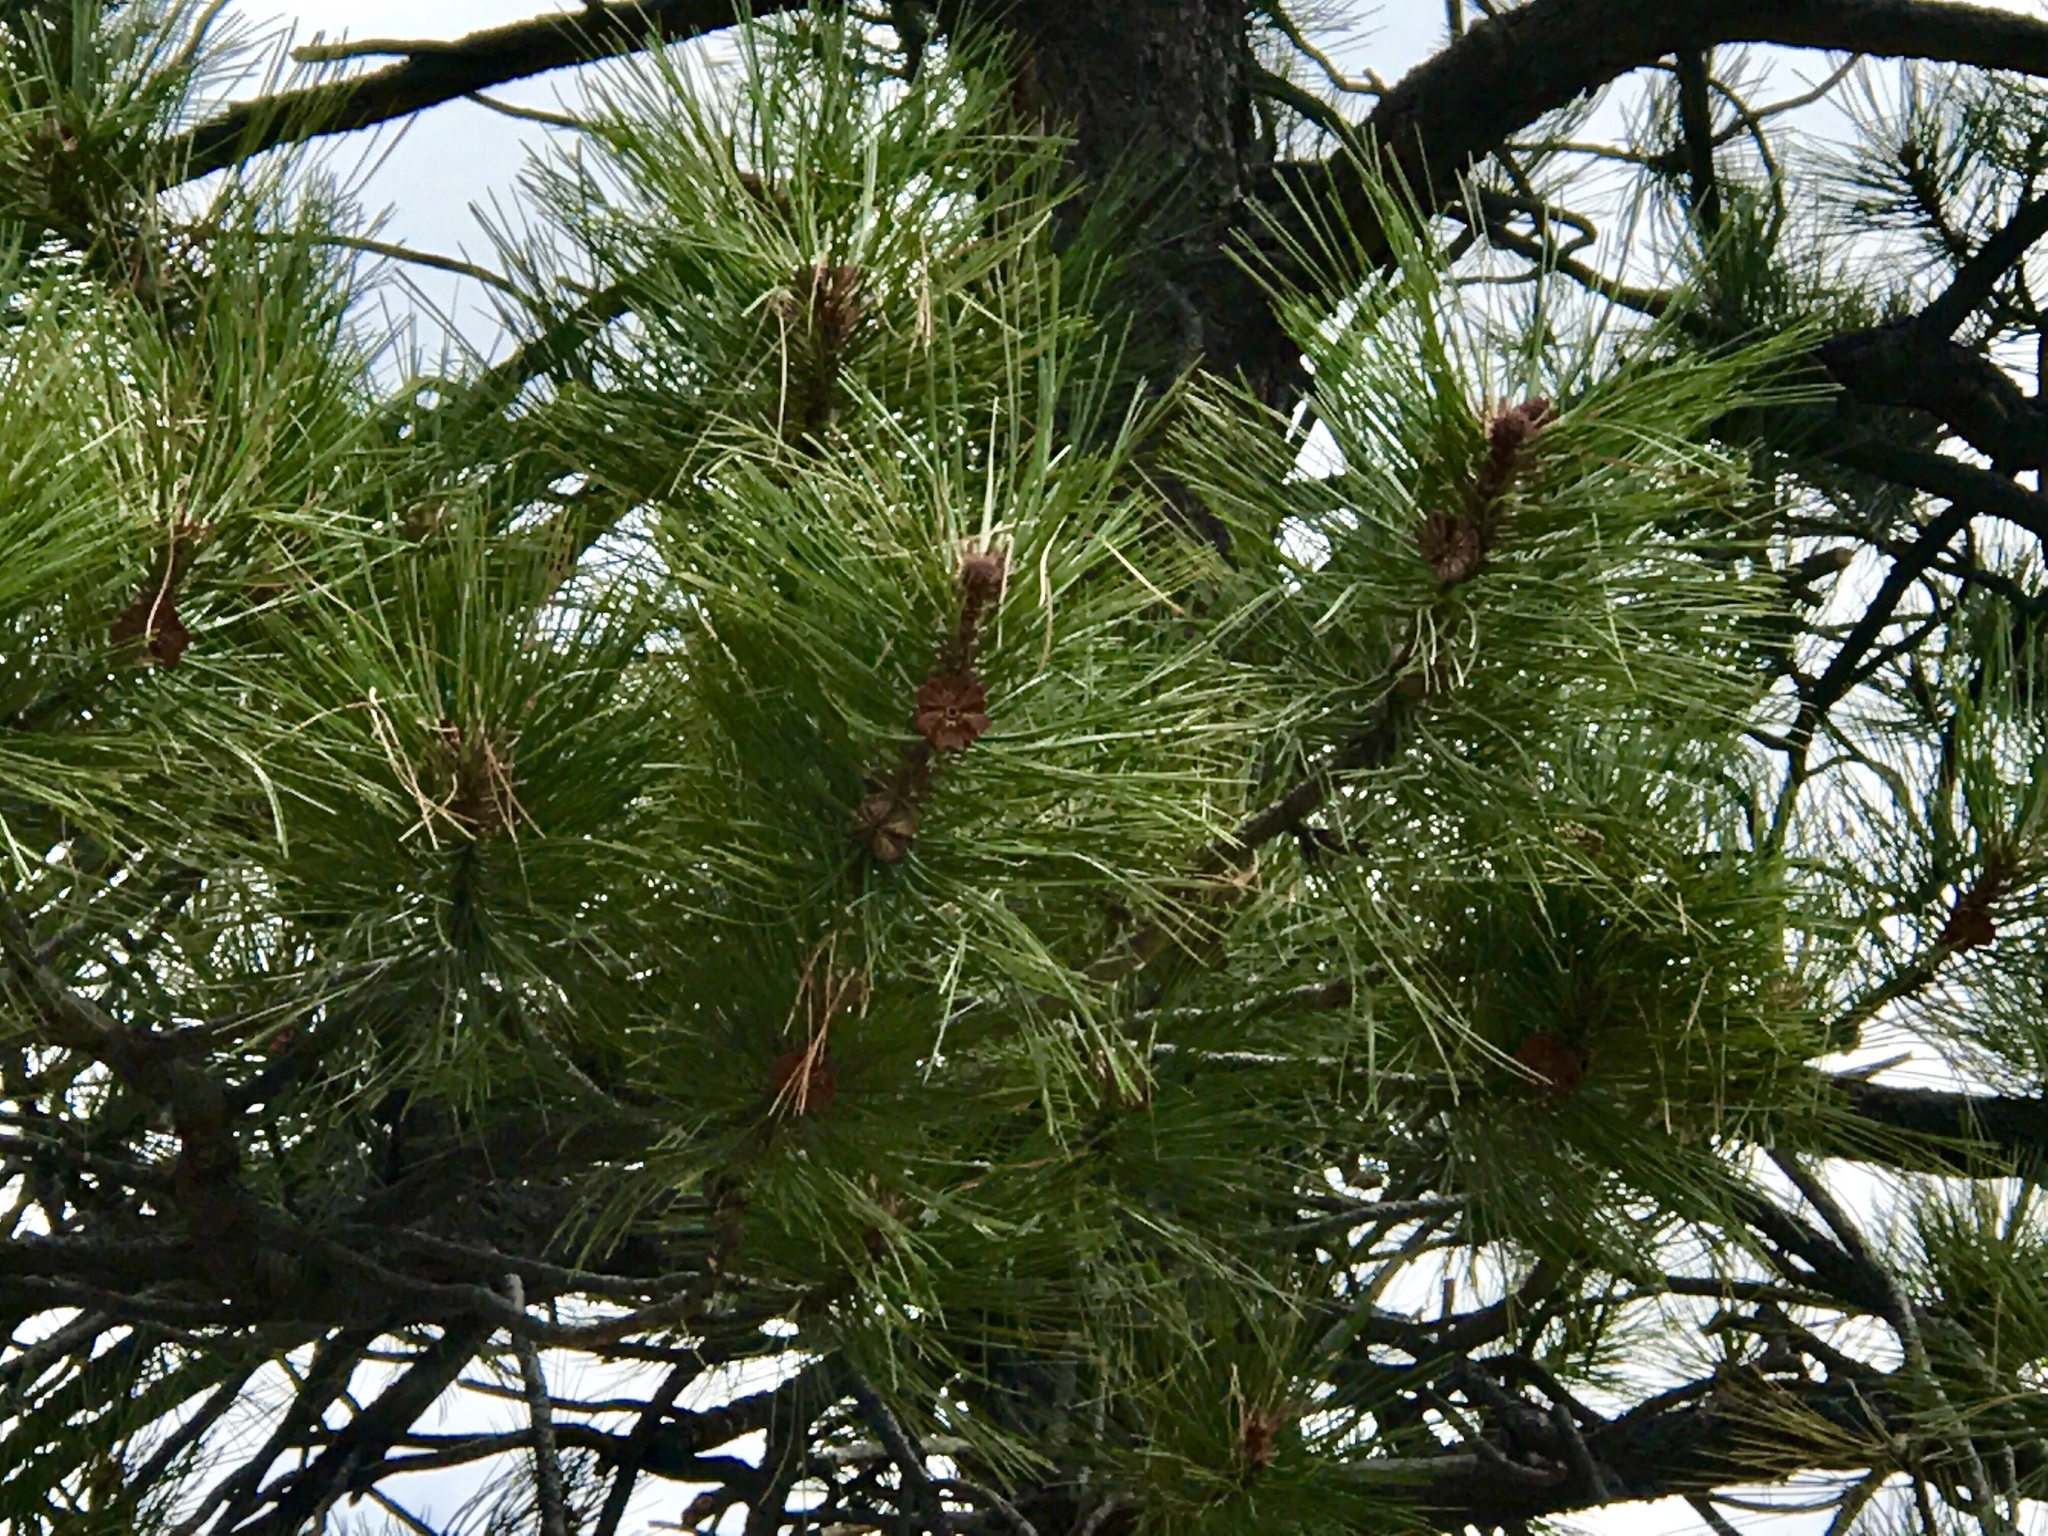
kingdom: Plantae
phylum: Tracheophyta
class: Pinopsida
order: Pinales
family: Pinaceae
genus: Pinus
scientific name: Pinus ponderosa
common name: Western yellow-pine
